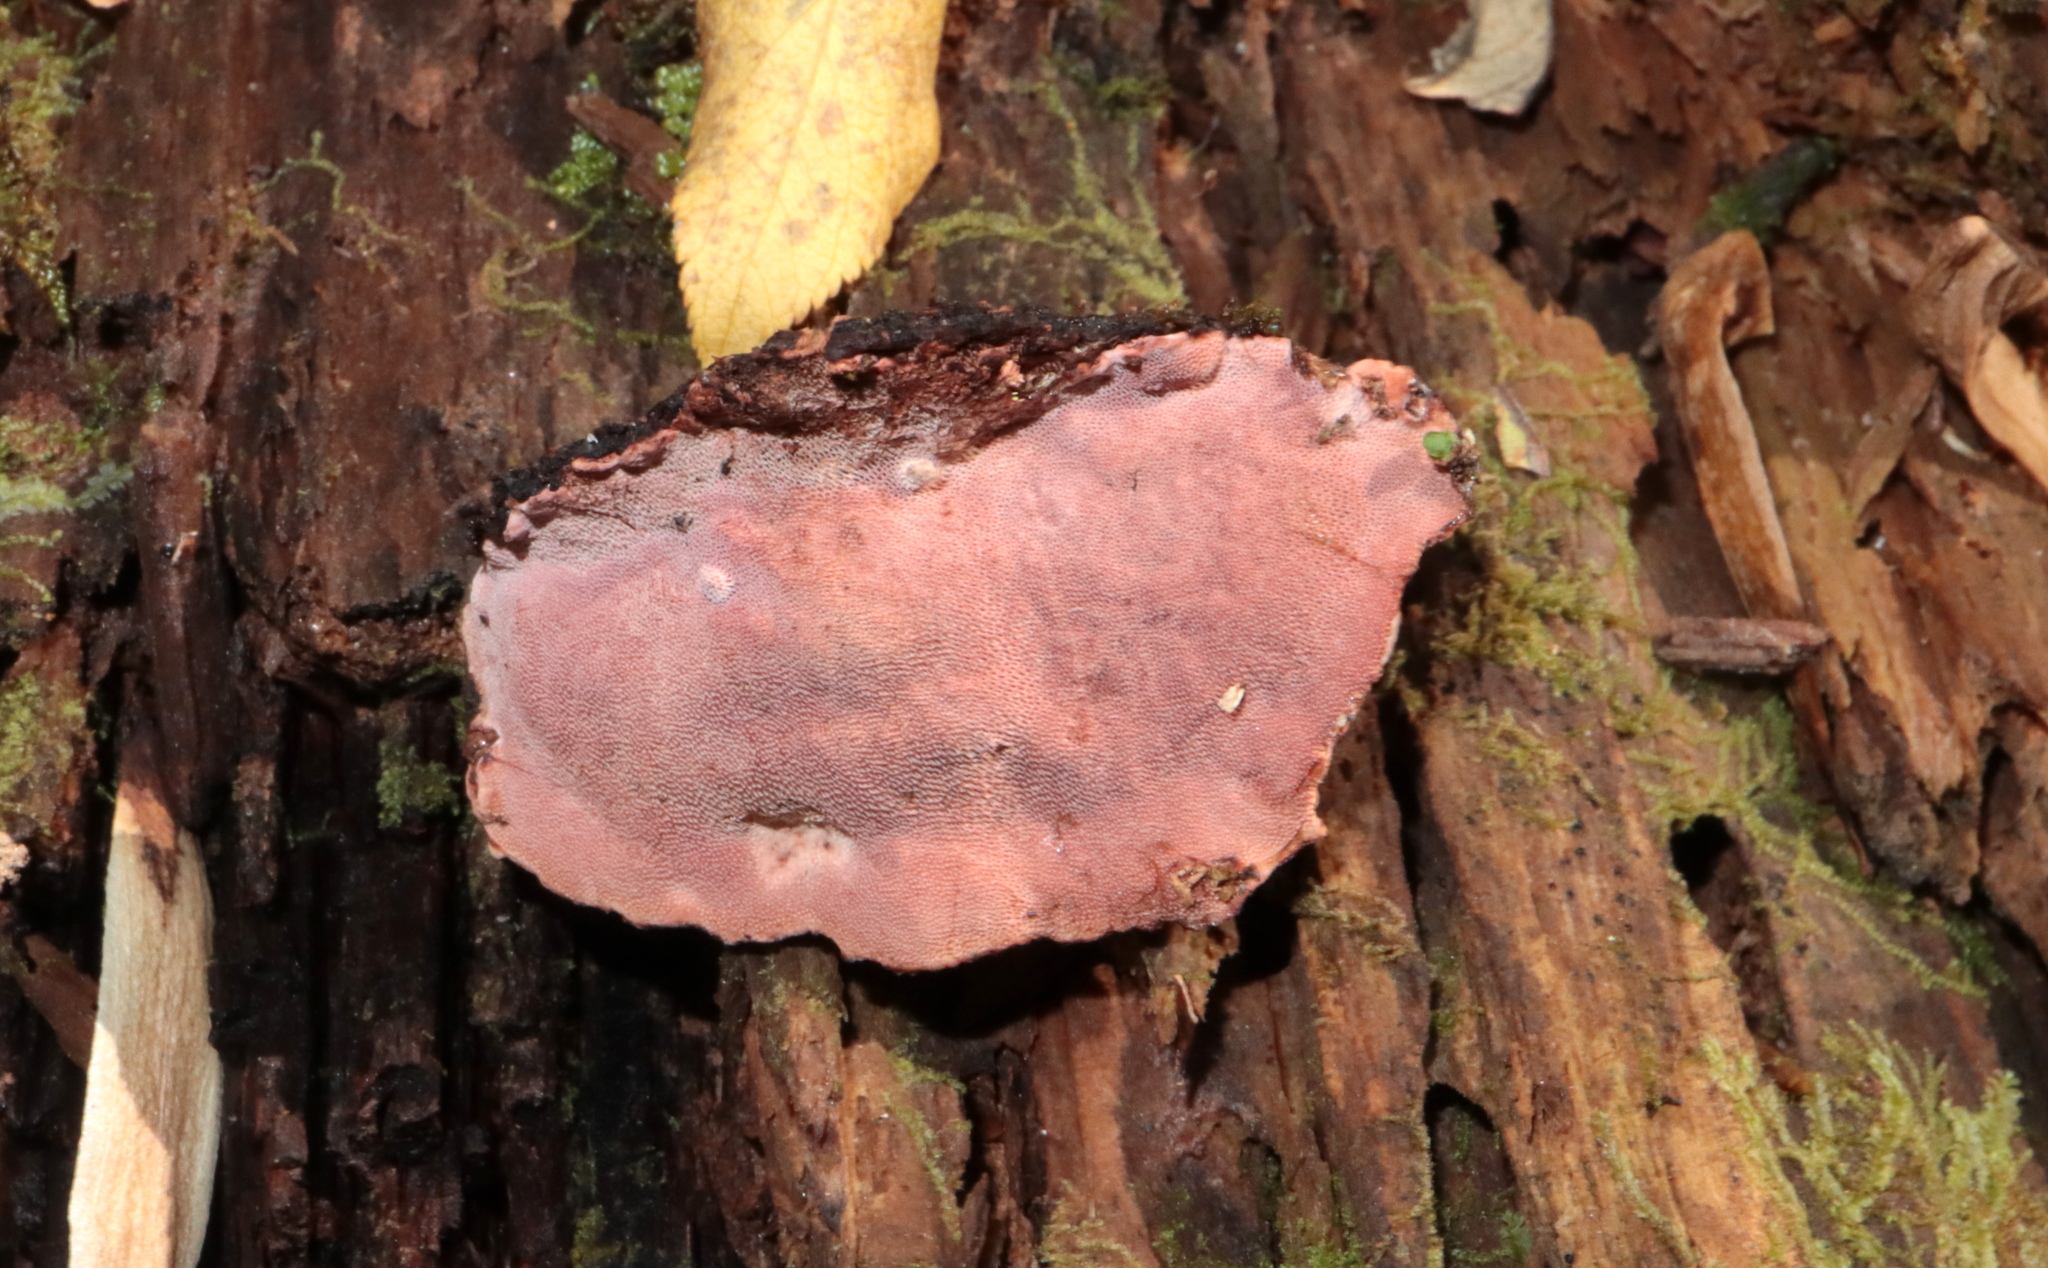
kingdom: Fungi
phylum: Basidiomycota
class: Agaricomycetes
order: Polyporales
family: Fomitopsidaceae
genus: Rhodofomes
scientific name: Rhodofomes cajanderi
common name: Rosy conk
